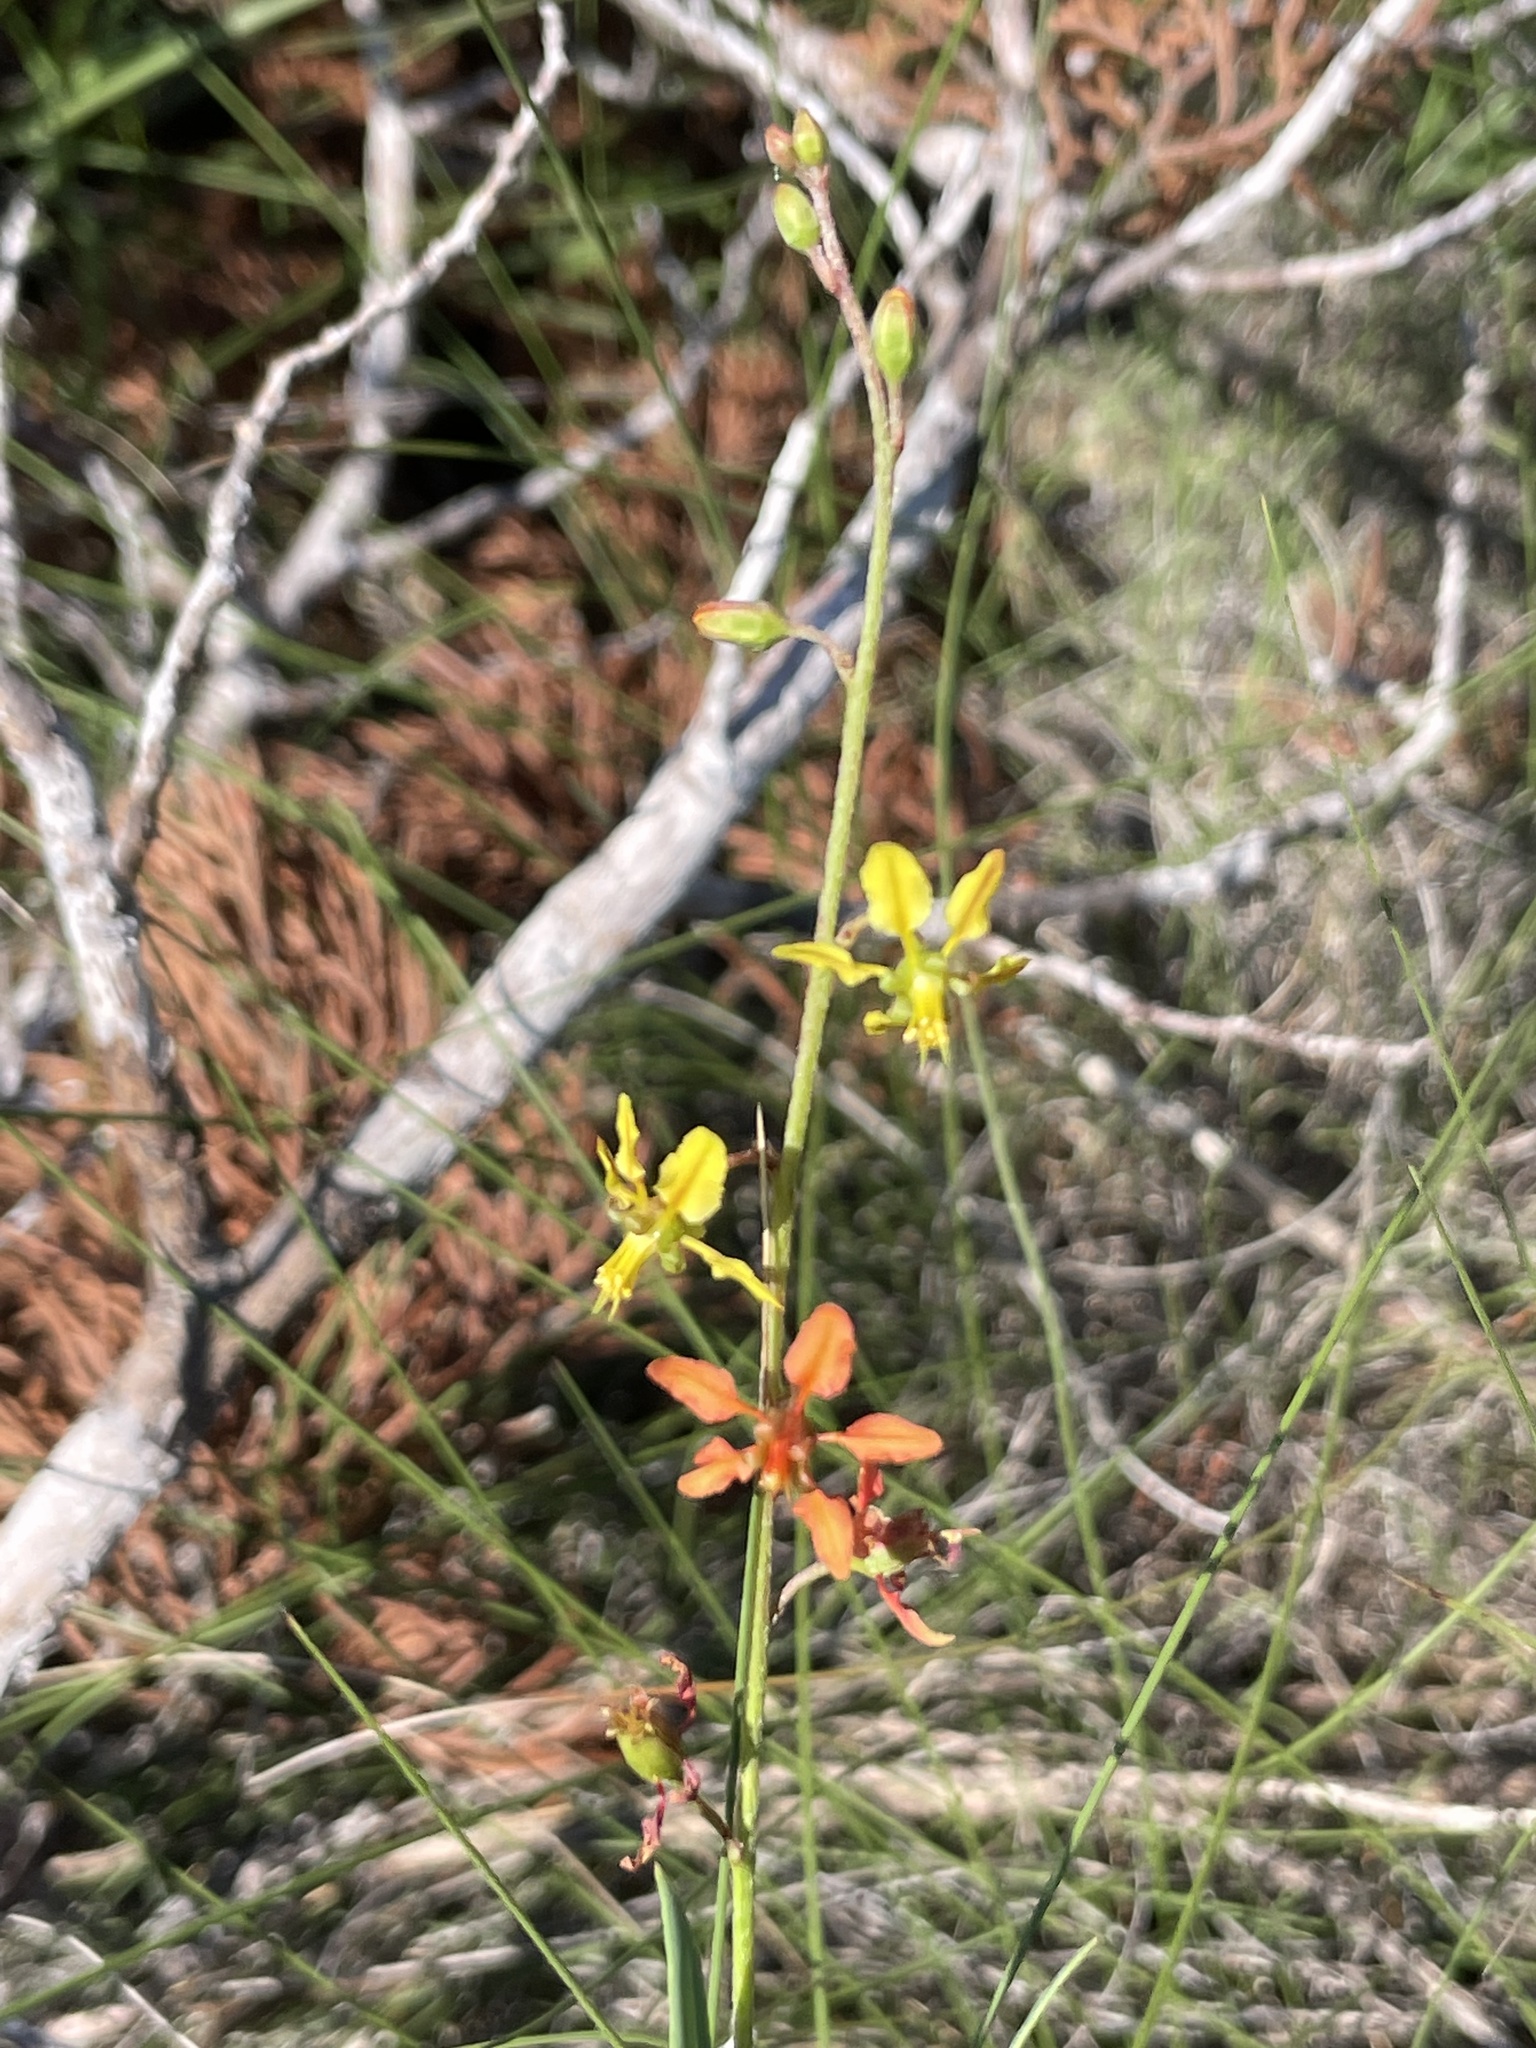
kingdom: Plantae
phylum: Tracheophyta
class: Magnoliopsida
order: Malpighiales
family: Malpighiaceae
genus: Galphimia
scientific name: Galphimia angustifolia
